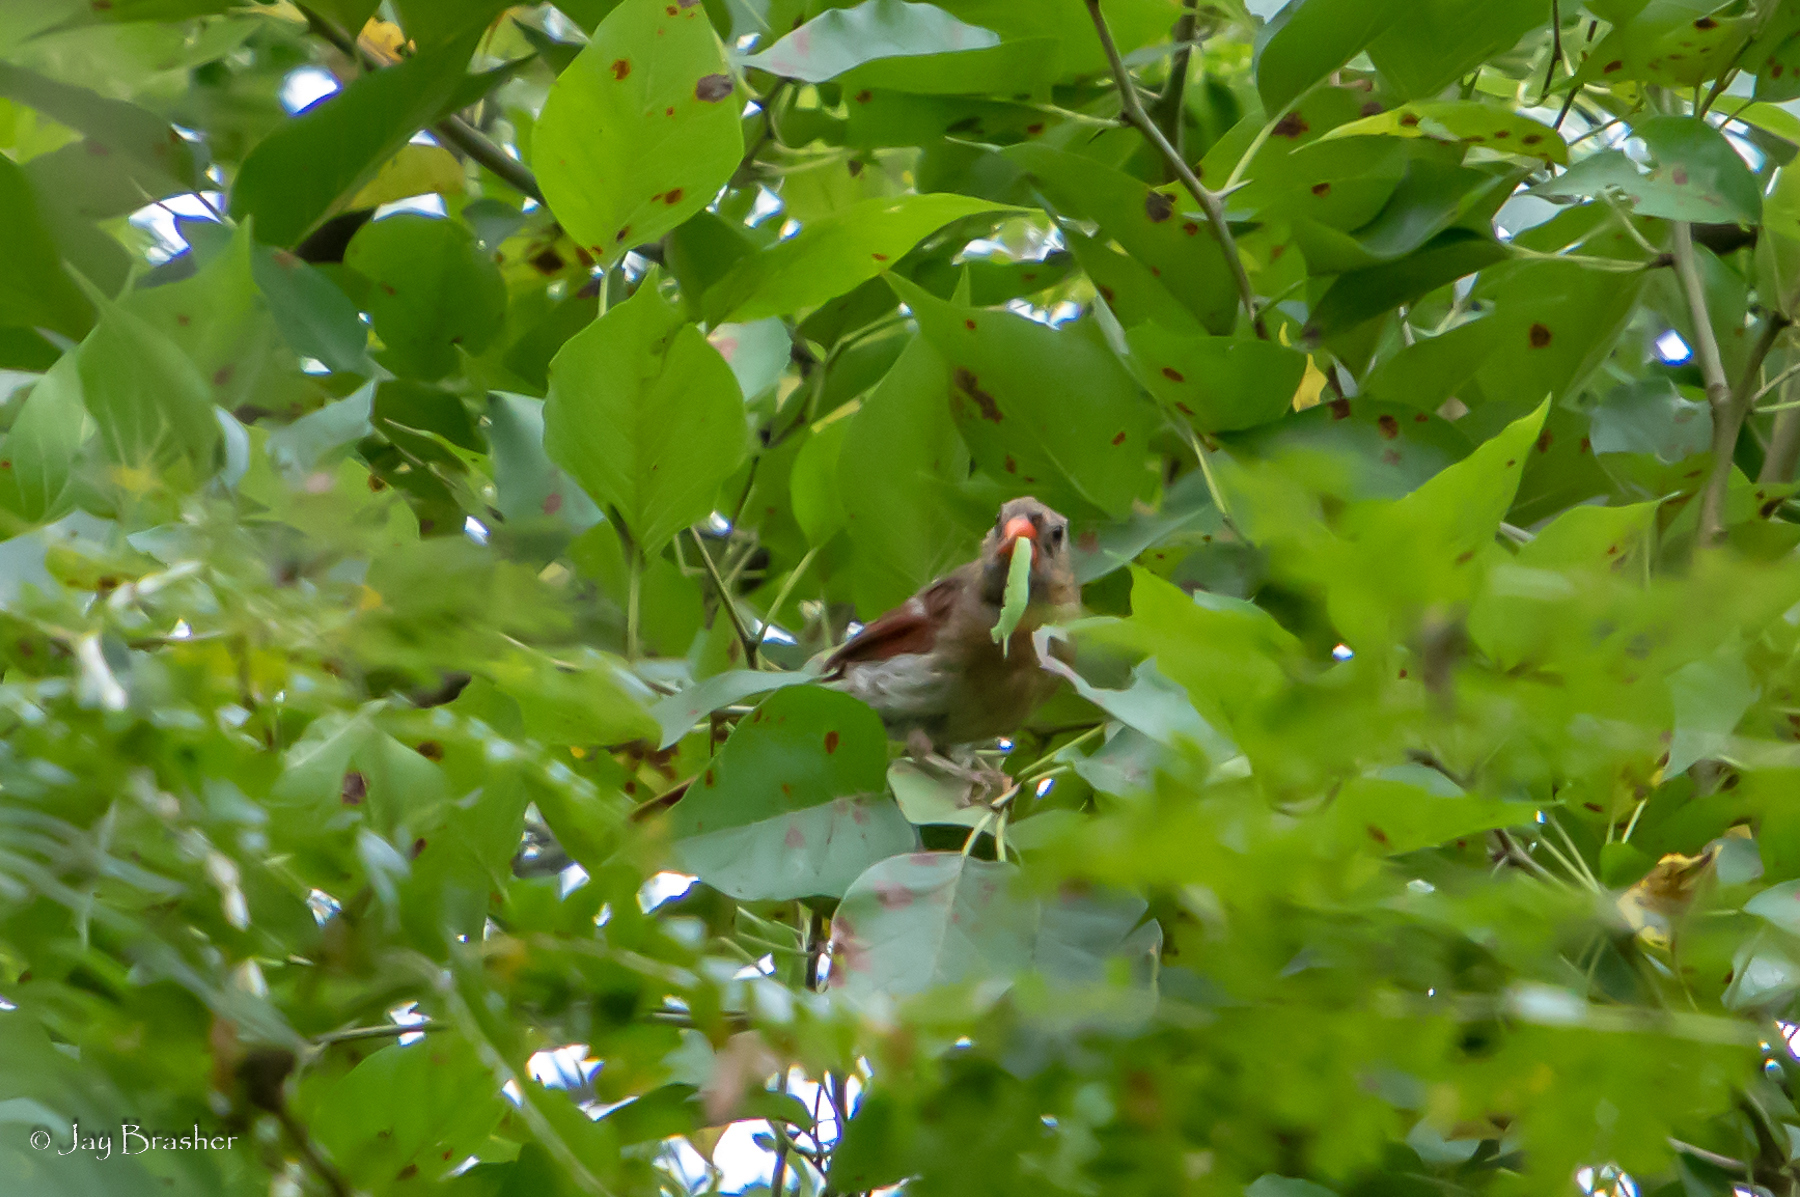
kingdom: Animalia
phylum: Chordata
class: Aves
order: Passeriformes
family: Cardinalidae
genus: Cardinalis
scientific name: Cardinalis cardinalis
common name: Northern cardinal
